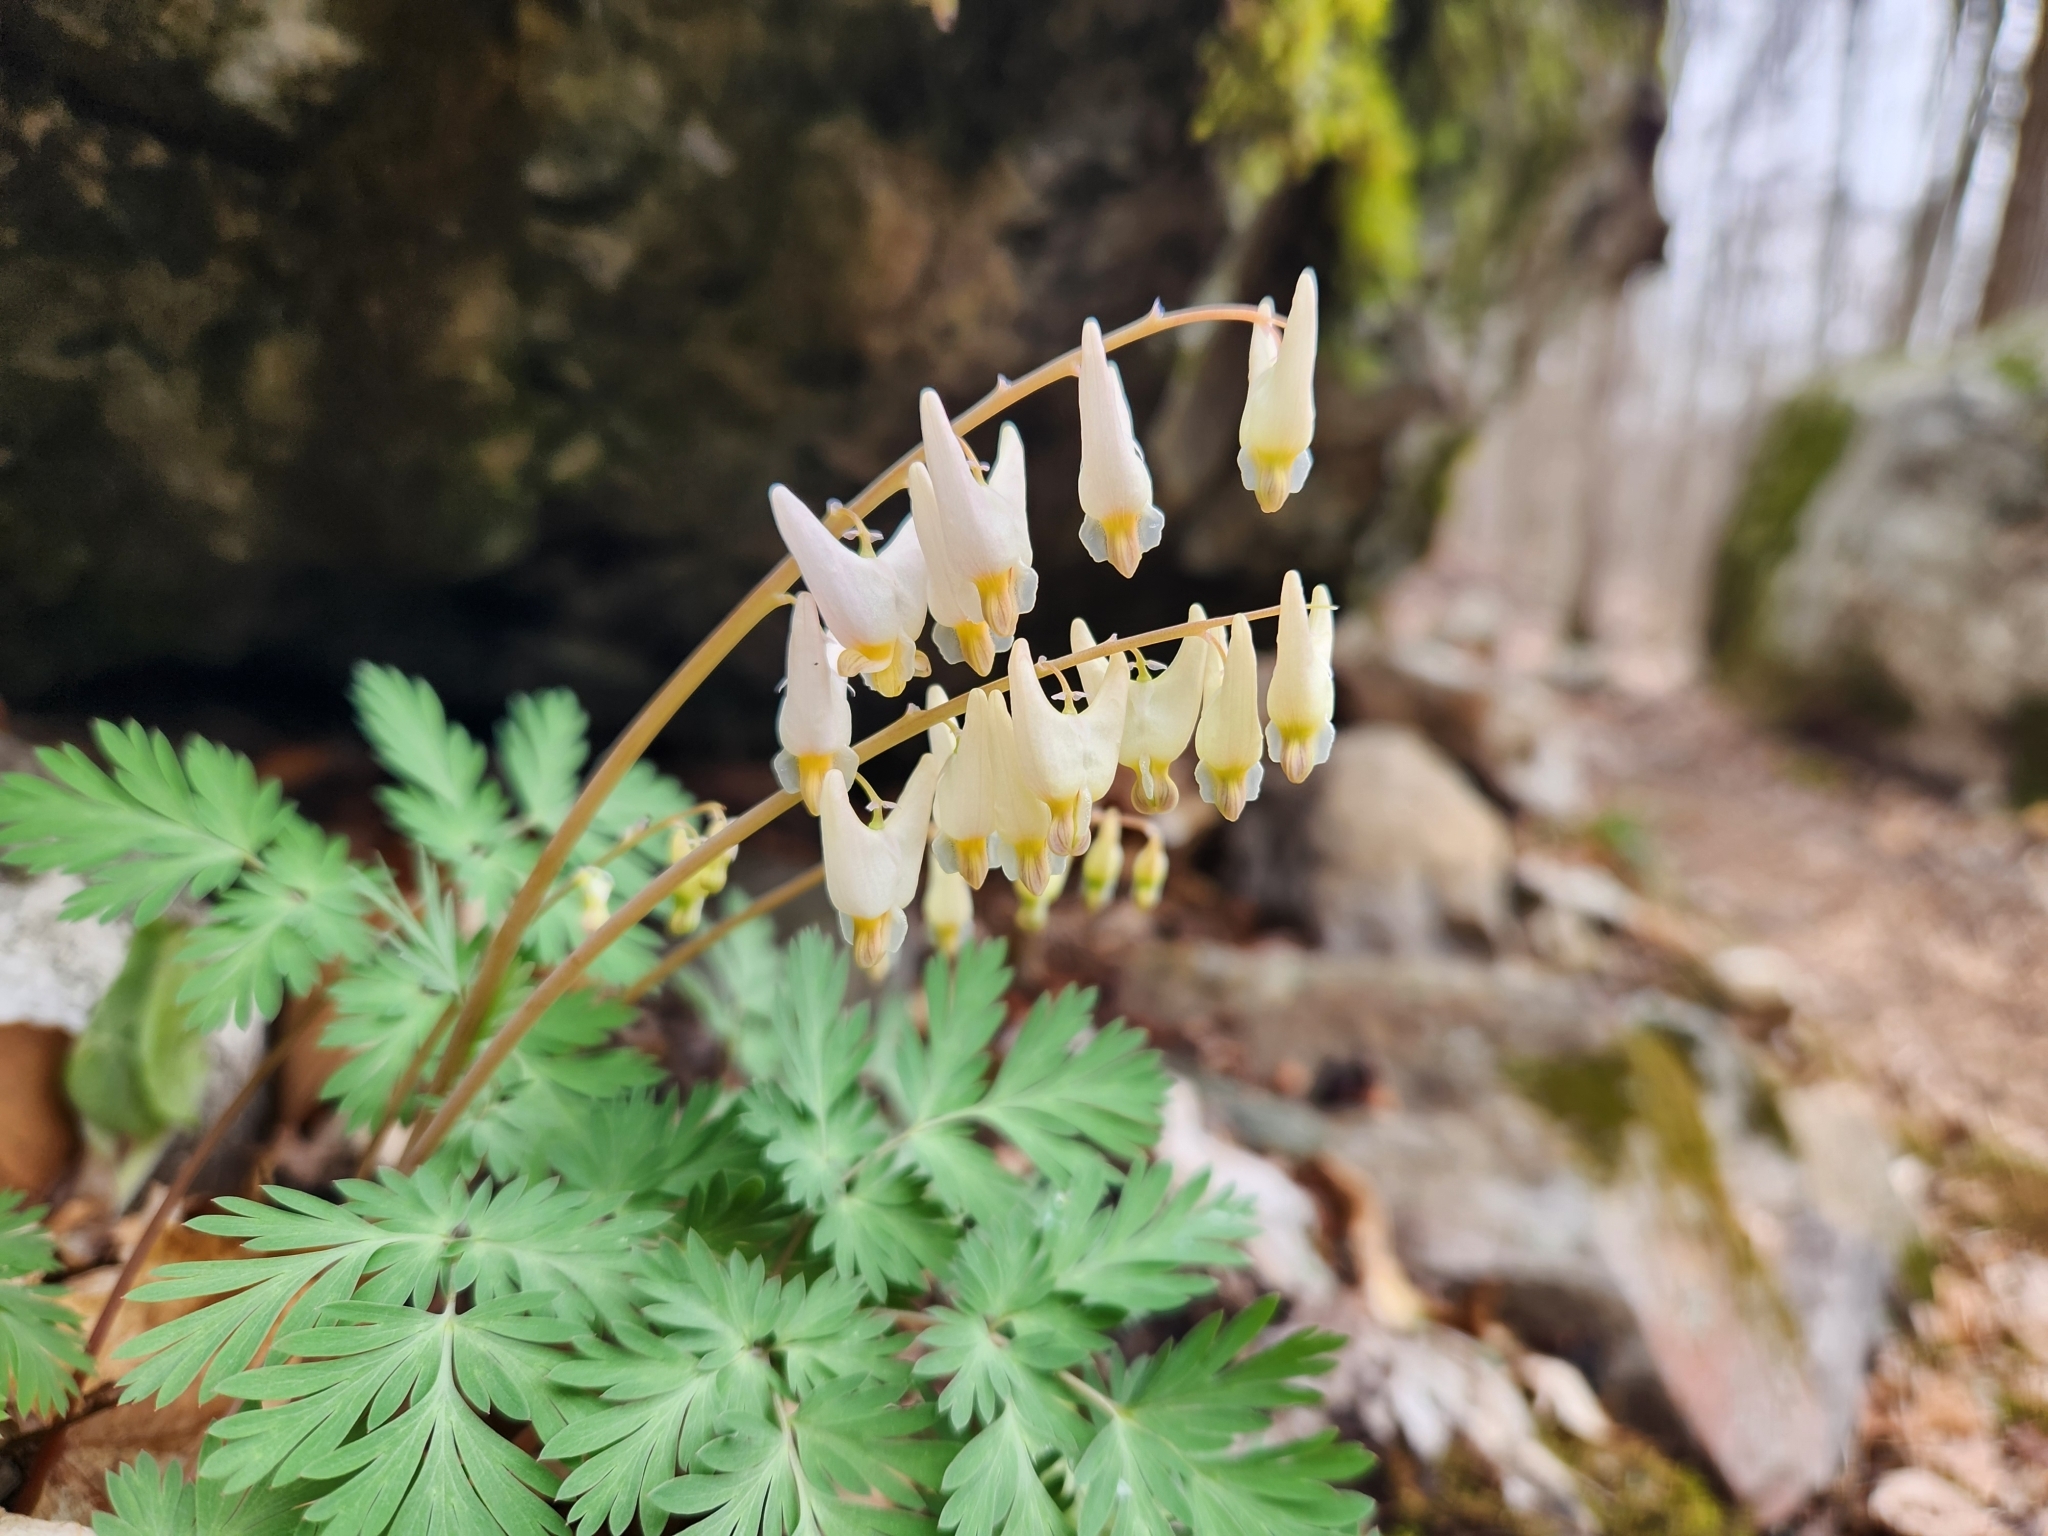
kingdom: Plantae
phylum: Tracheophyta
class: Magnoliopsida
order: Ranunculales
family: Papaveraceae
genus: Dicentra
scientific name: Dicentra cucullaria
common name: Dutchman's breeches
